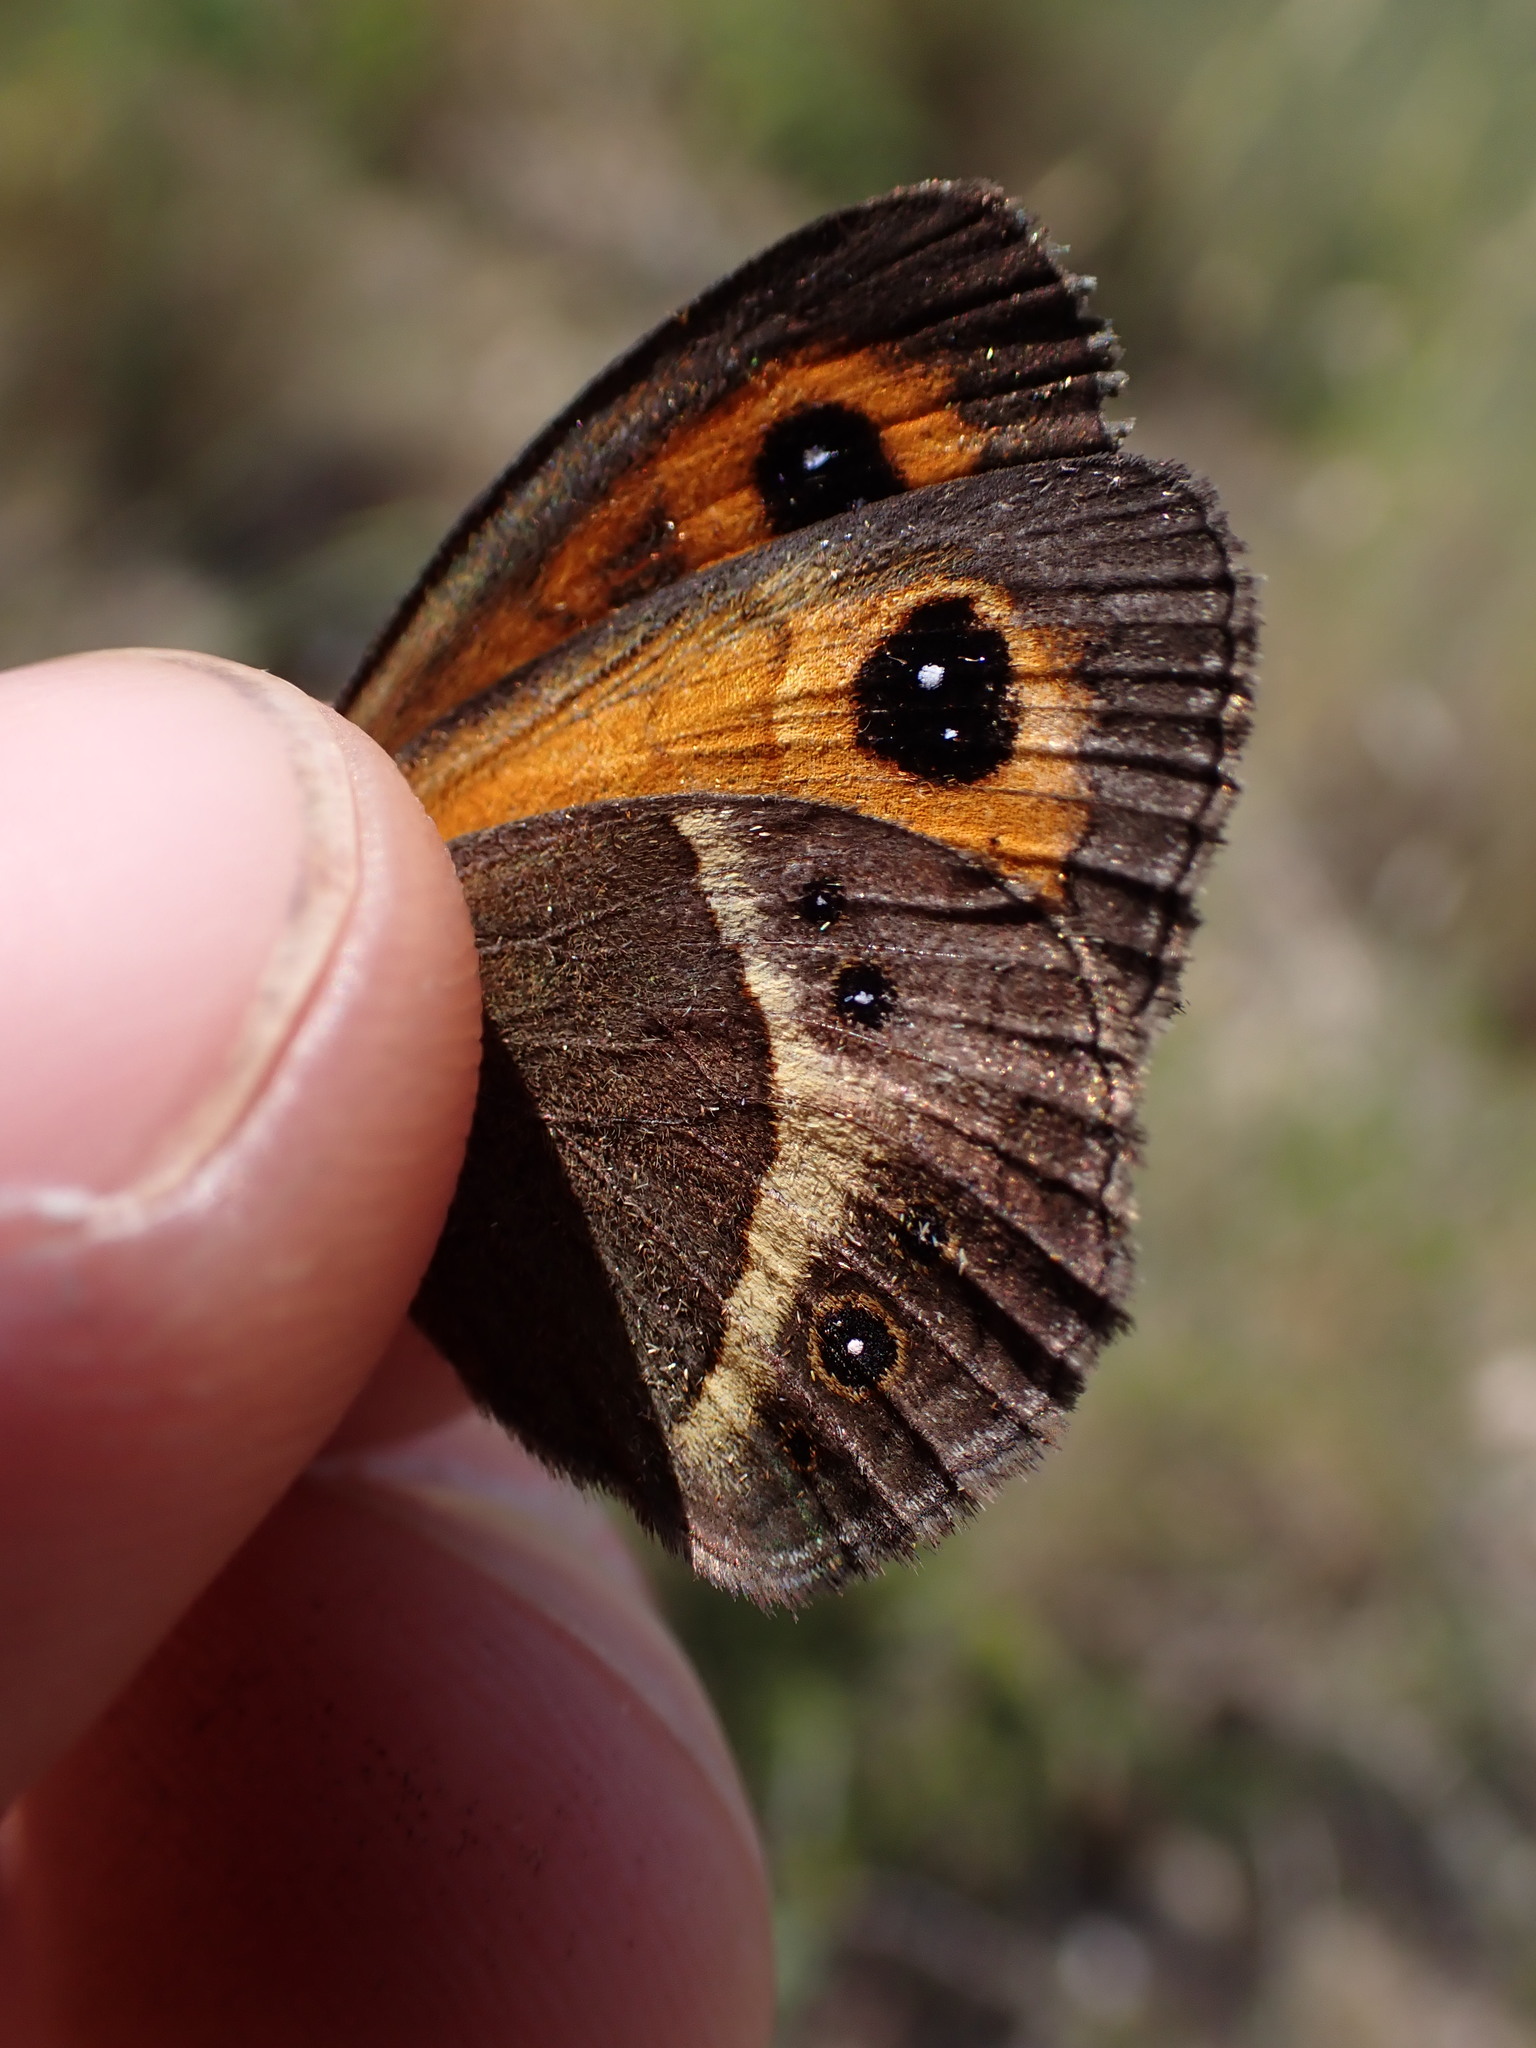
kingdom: Animalia
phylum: Arthropoda
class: Insecta
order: Lepidoptera
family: Nymphalidae
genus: Pyronia
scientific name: Pyronia bathseba
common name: Spanish gatekeeper
